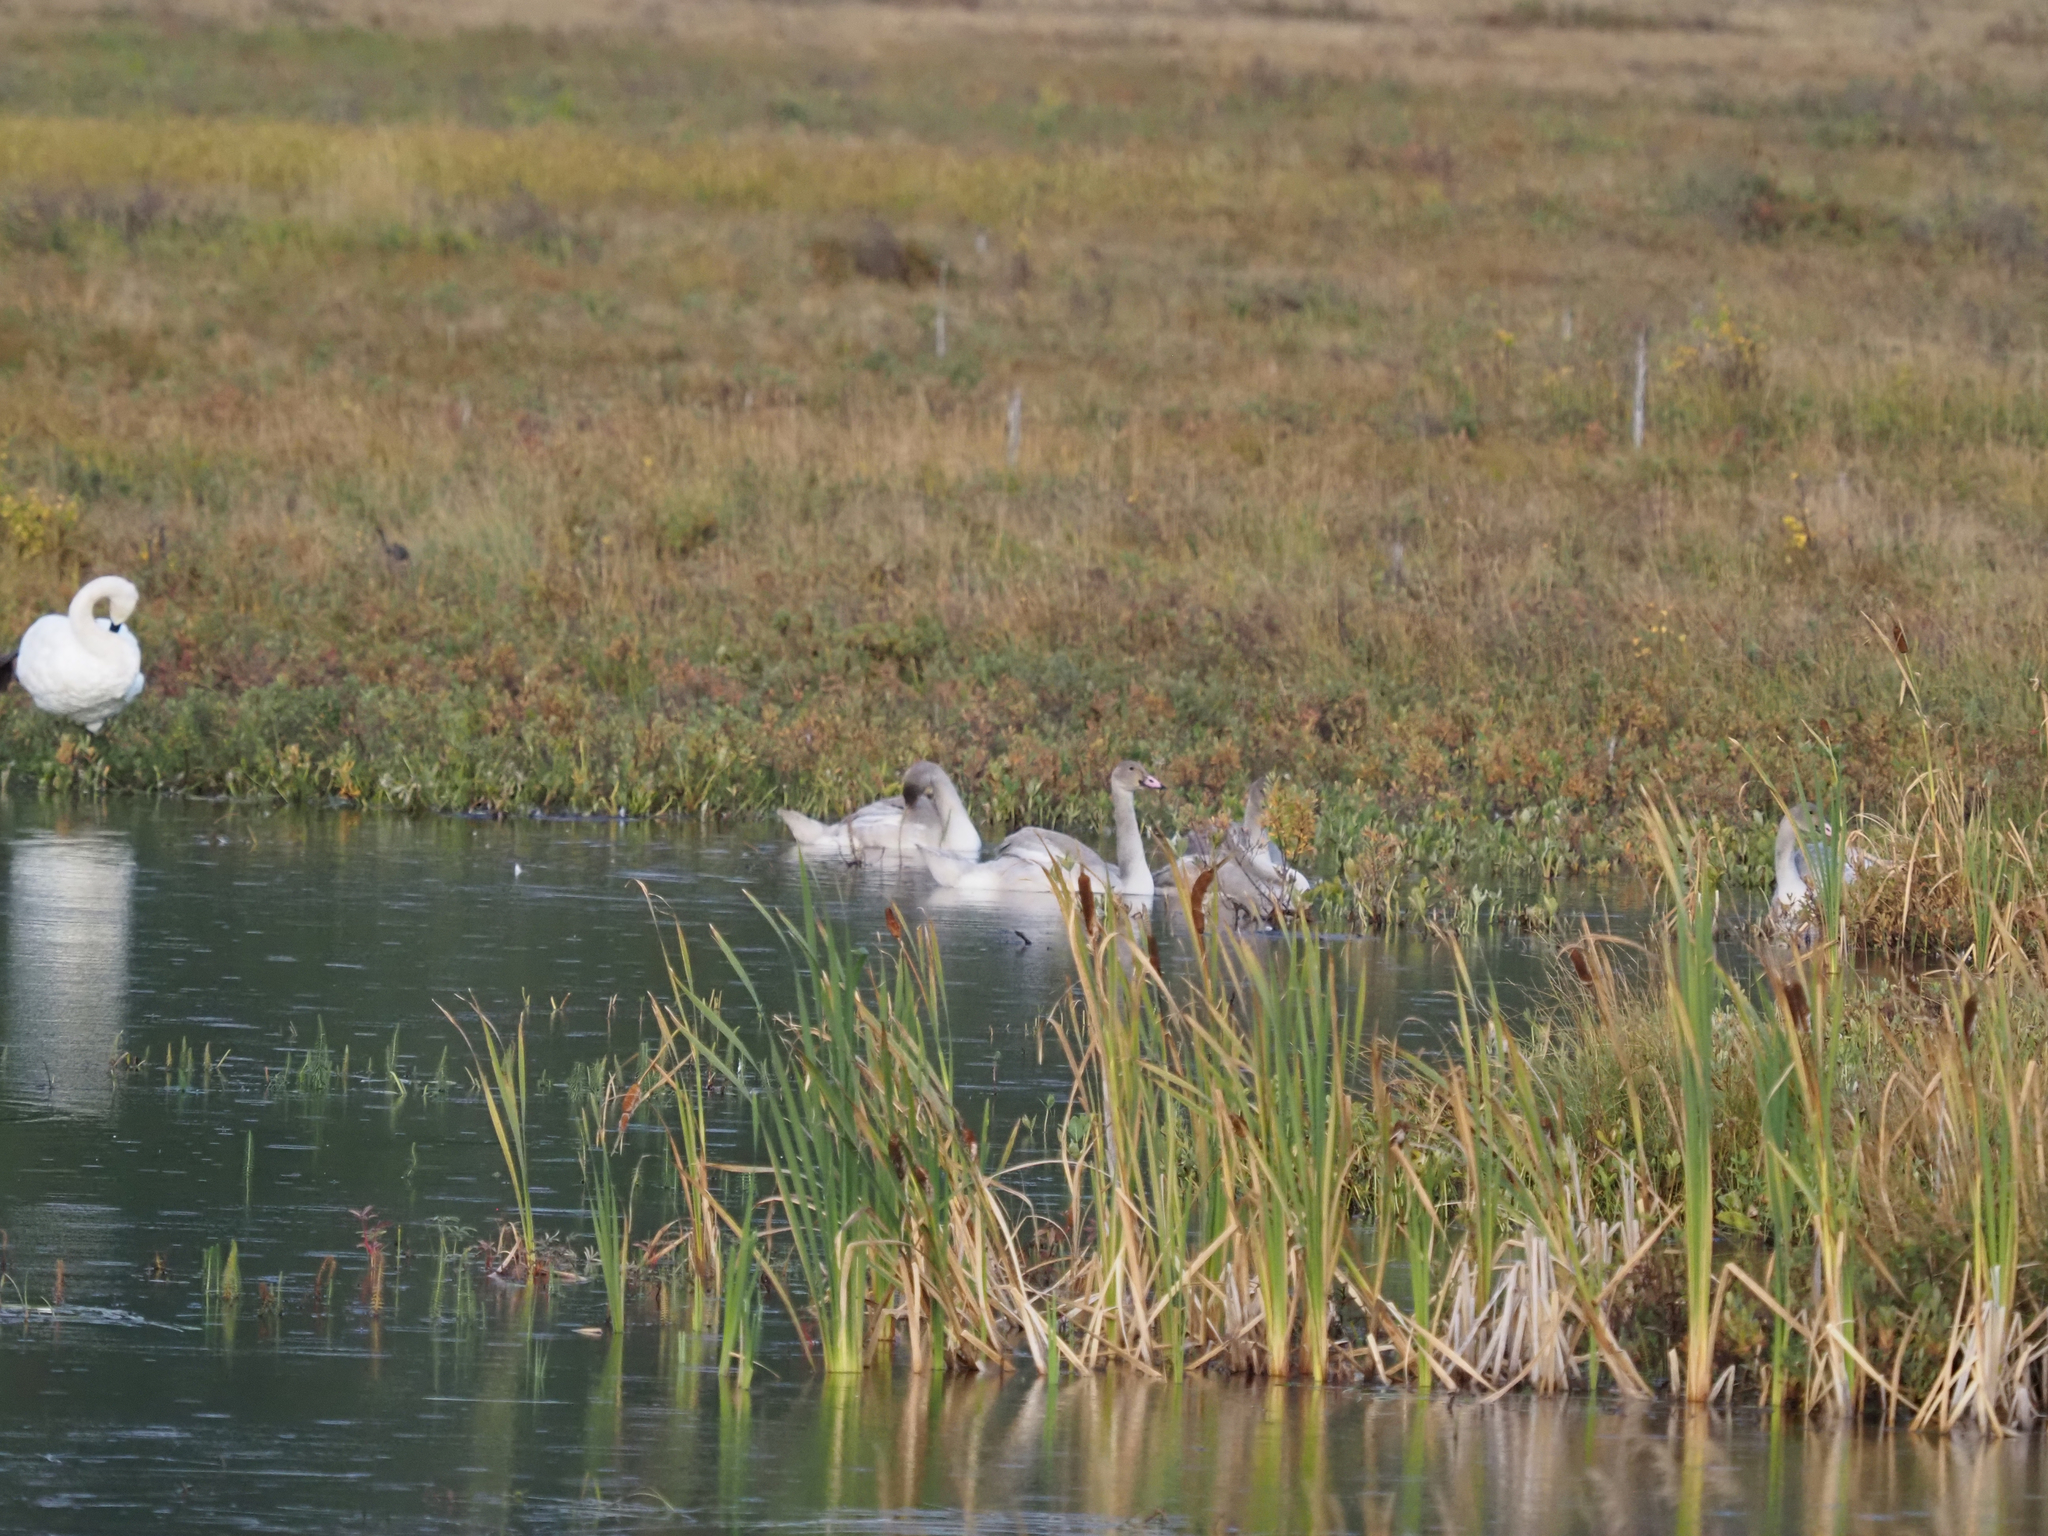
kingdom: Animalia
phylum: Chordata
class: Aves
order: Anseriformes
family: Anatidae
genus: Cygnus
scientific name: Cygnus buccinator
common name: Trumpeter swan
